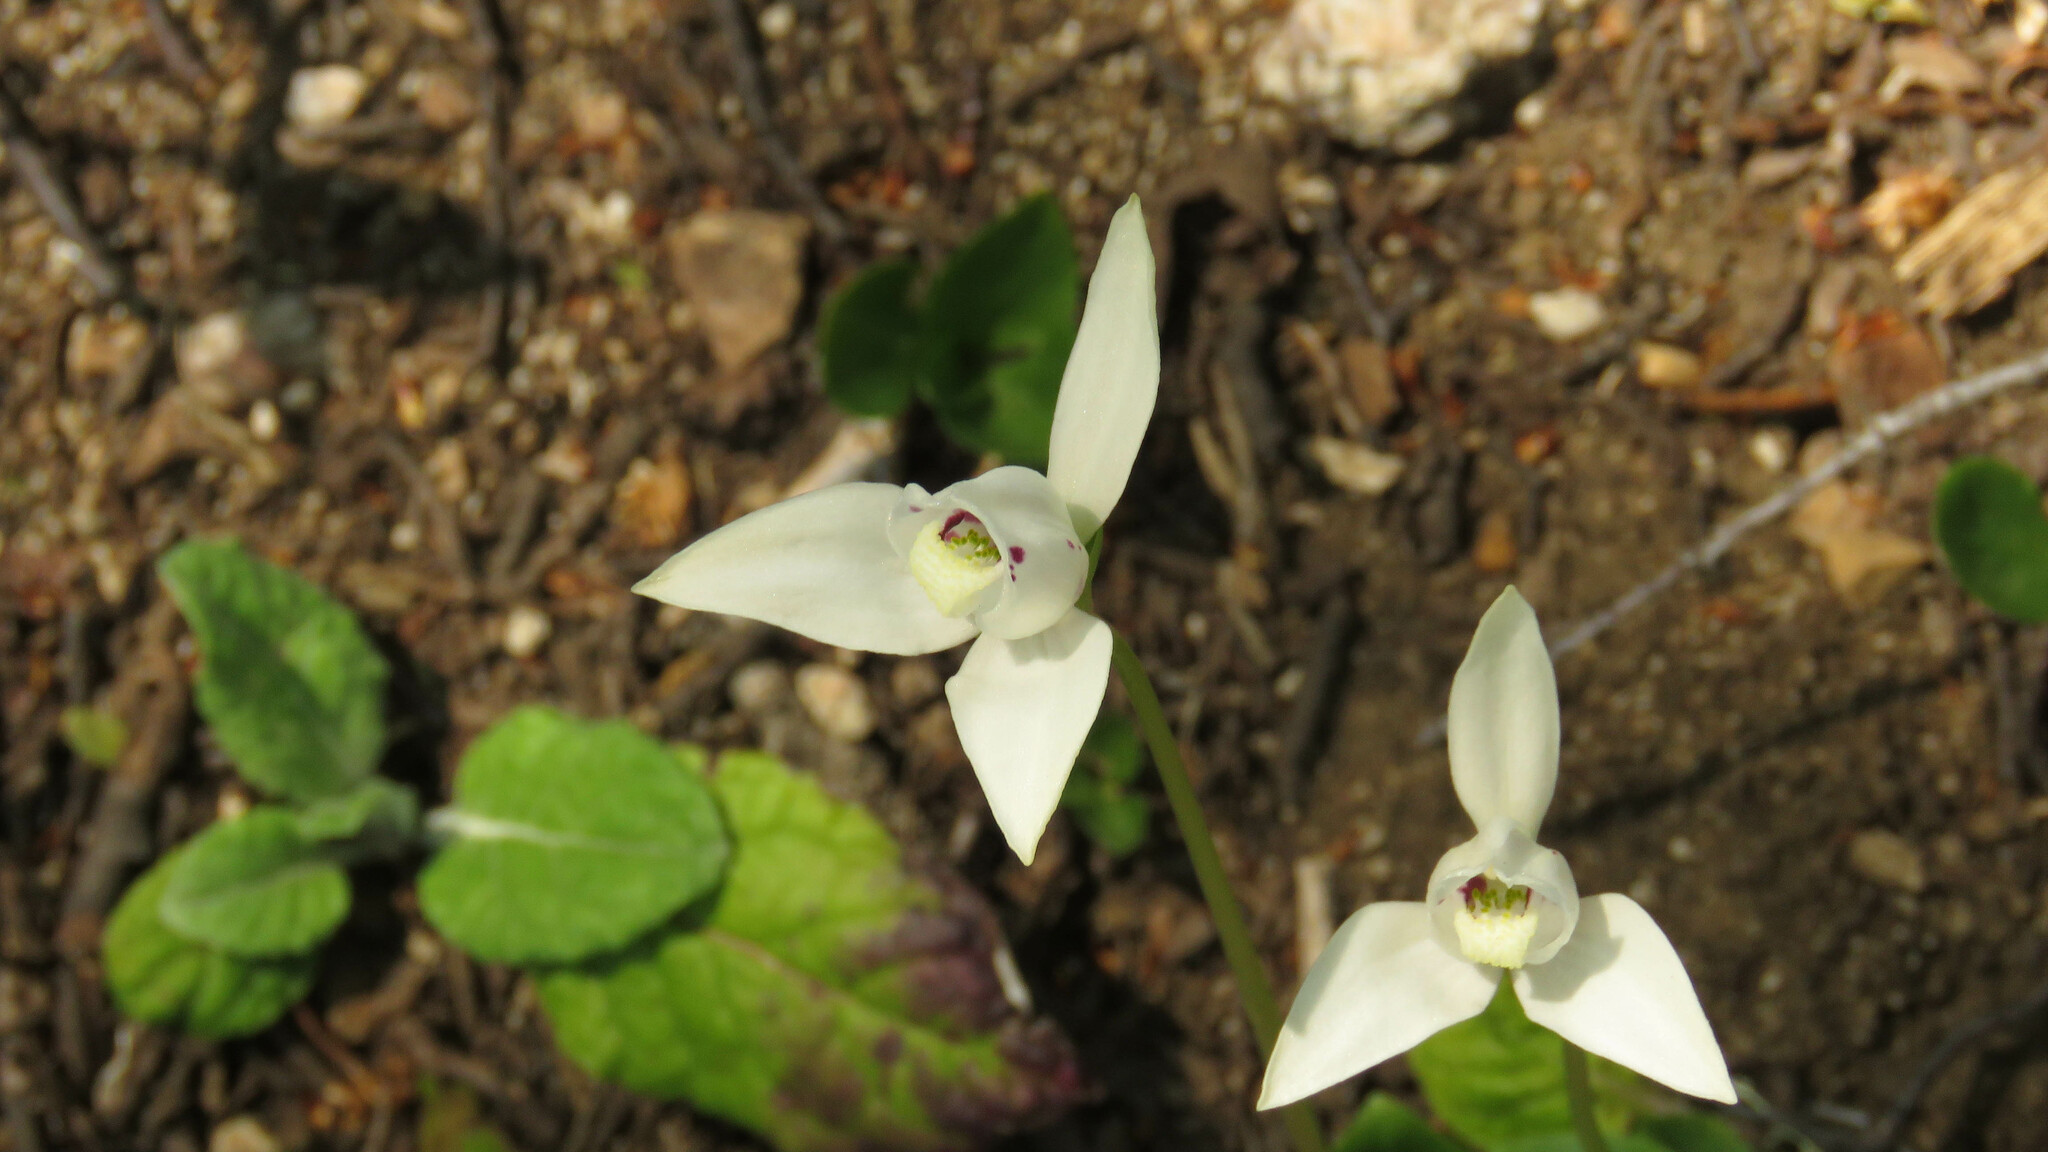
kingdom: Plantae
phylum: Tracheophyta
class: Liliopsida
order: Asparagales
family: Orchidaceae
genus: Codonorchis
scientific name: Codonorchis lessonii
